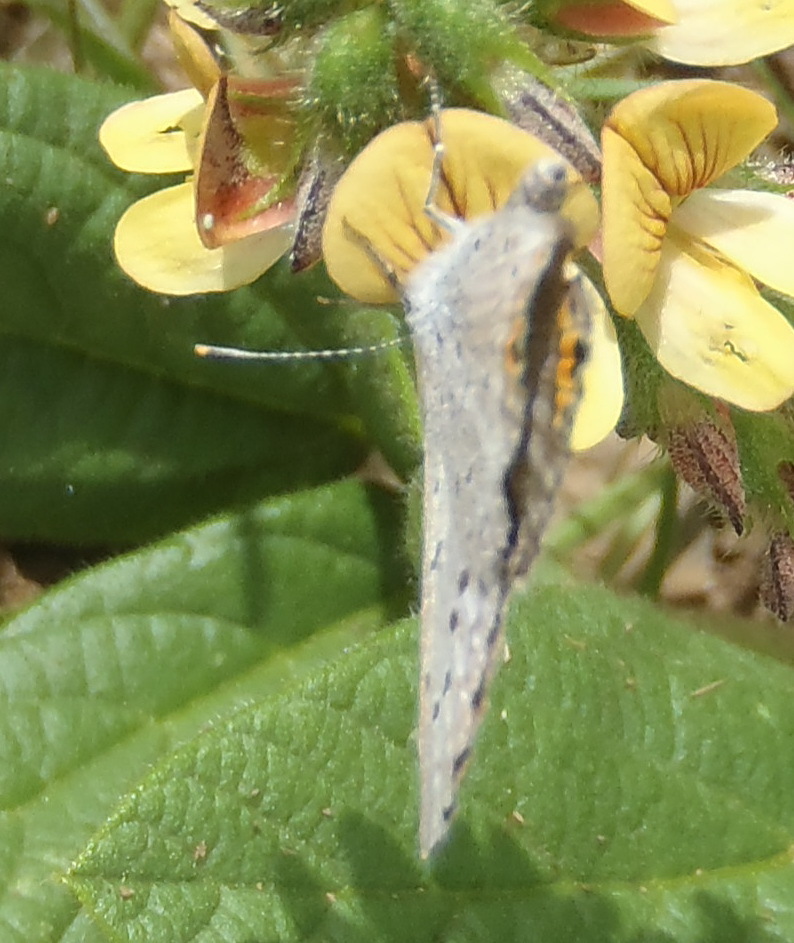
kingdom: Animalia
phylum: Arthropoda
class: Insecta
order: Lepidoptera
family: Lycaenidae
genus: Cupido
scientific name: Cupido cissus
